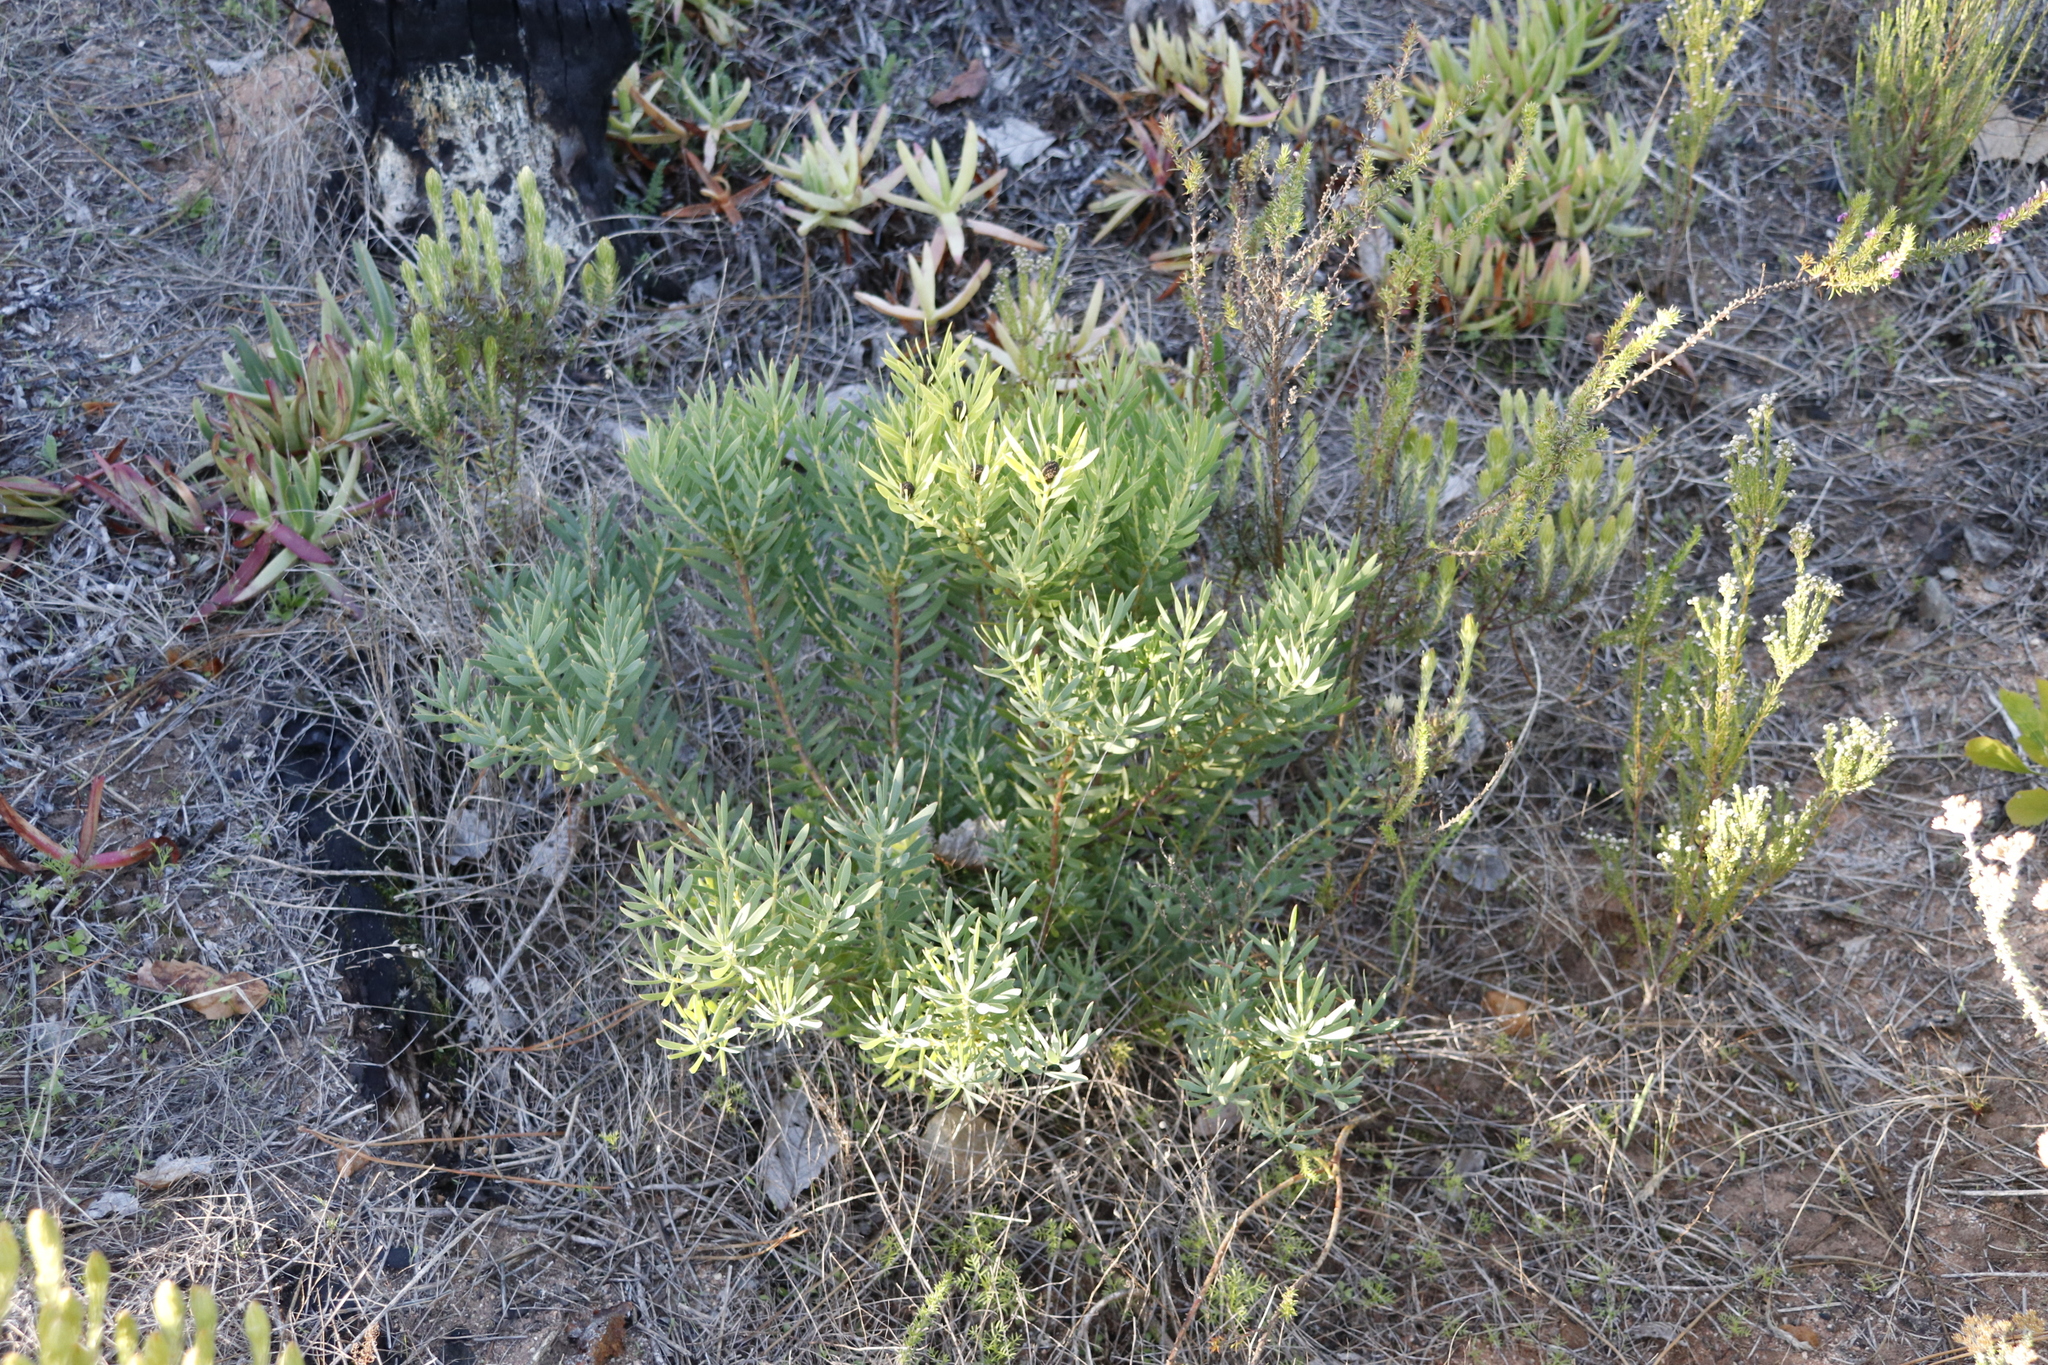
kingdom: Plantae
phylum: Tracheophyta
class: Magnoliopsida
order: Proteales
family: Proteaceae
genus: Leucadendron
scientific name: Leucadendron salignum
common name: Common sunshine conebush
